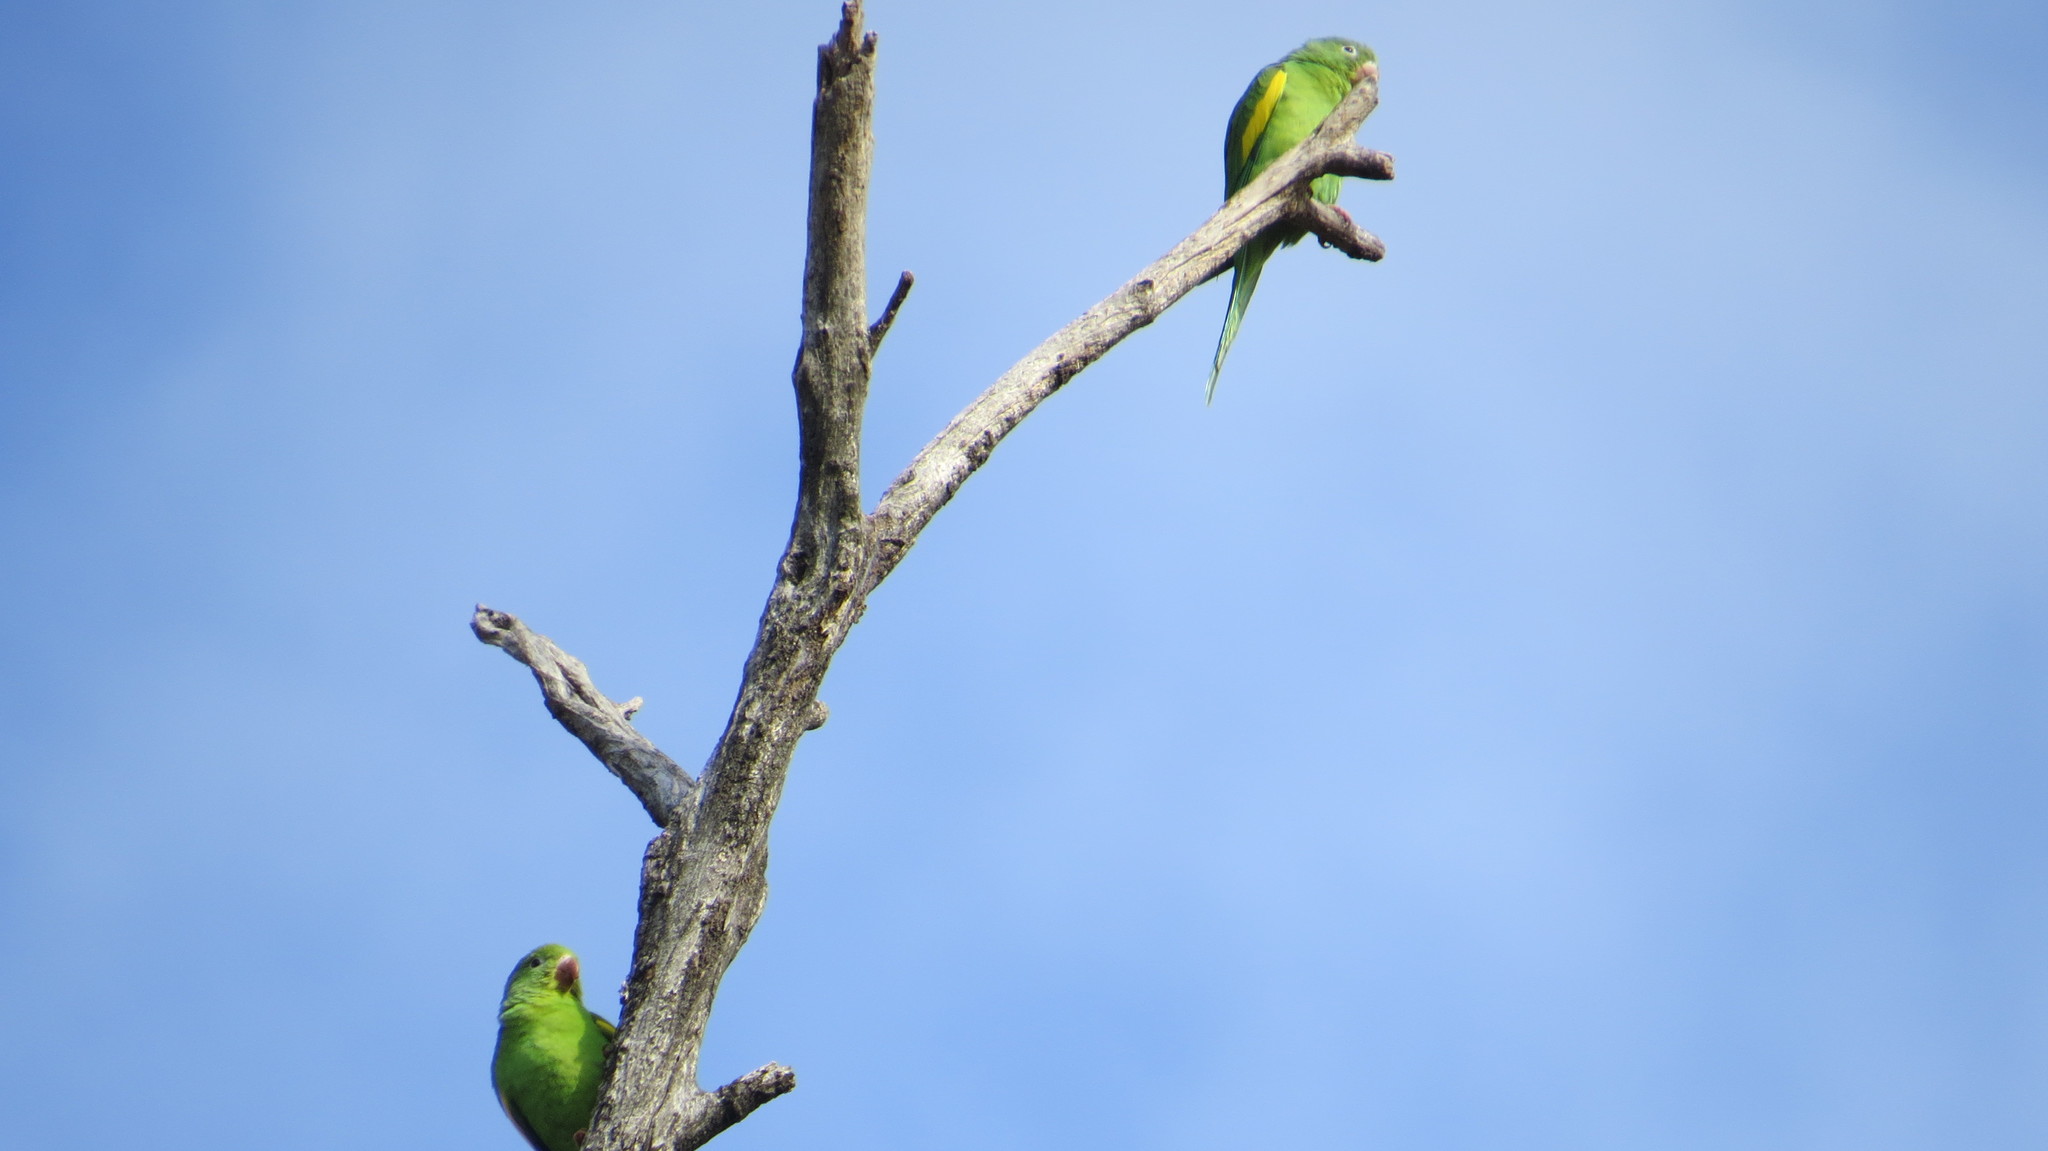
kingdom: Animalia
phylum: Chordata
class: Aves
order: Psittaciformes
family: Psittacidae
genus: Brotogeris
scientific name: Brotogeris chiriri
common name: Yellow-chevroned parakeet
